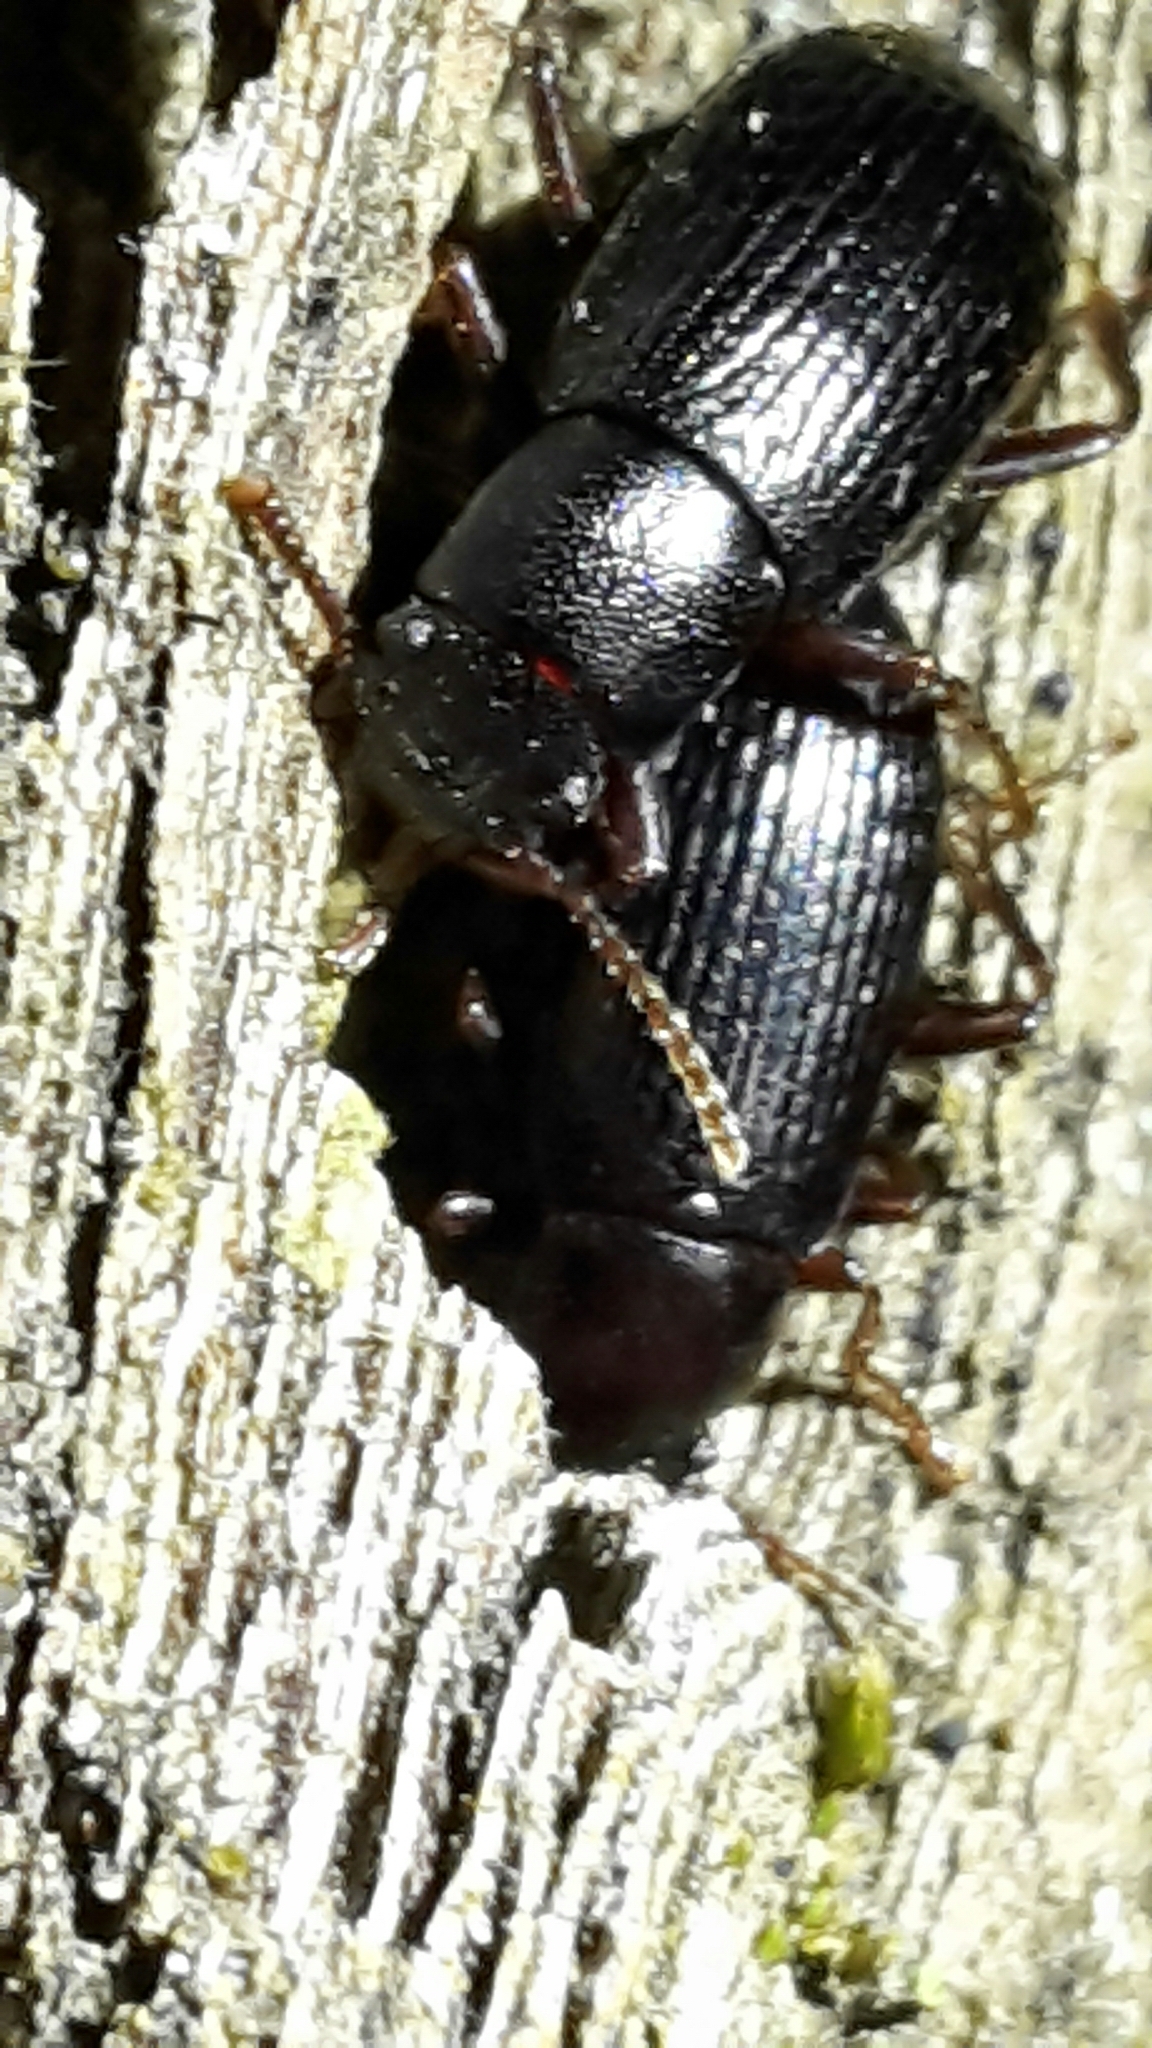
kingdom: Animalia
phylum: Arthropoda
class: Insecta
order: Coleoptera
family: Tenebrionidae
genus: Artystona
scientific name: Artystona
